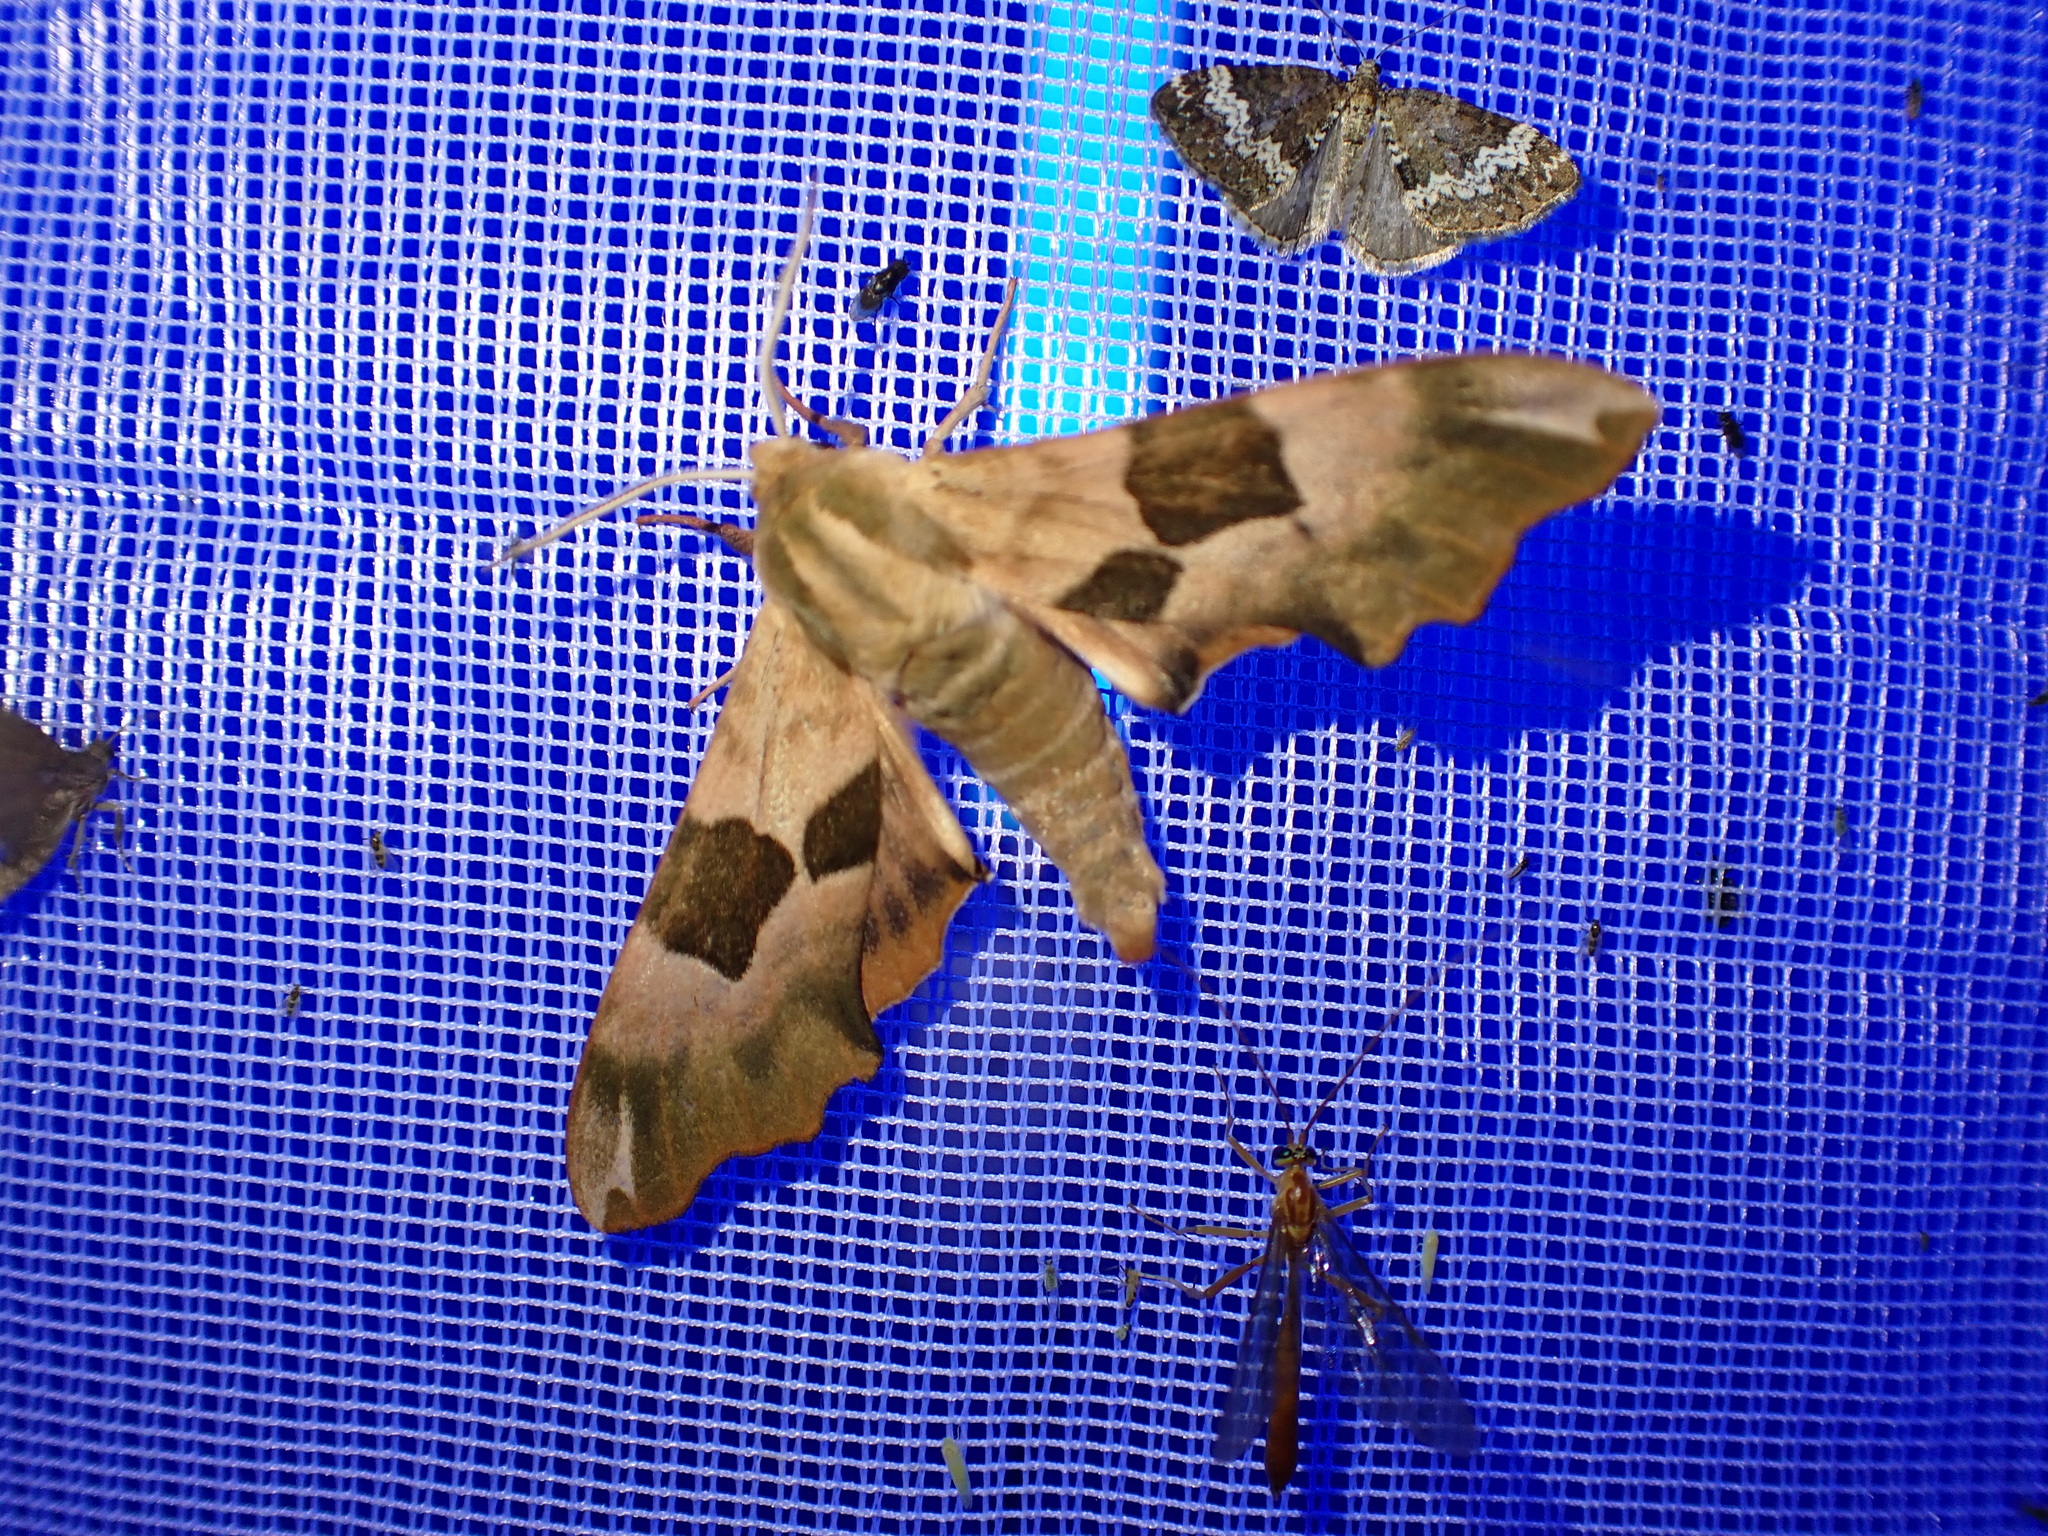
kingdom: Animalia
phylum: Arthropoda
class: Insecta
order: Lepidoptera
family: Sphingidae
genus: Mimas
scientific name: Mimas tiliae
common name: Lime hawk-moth
